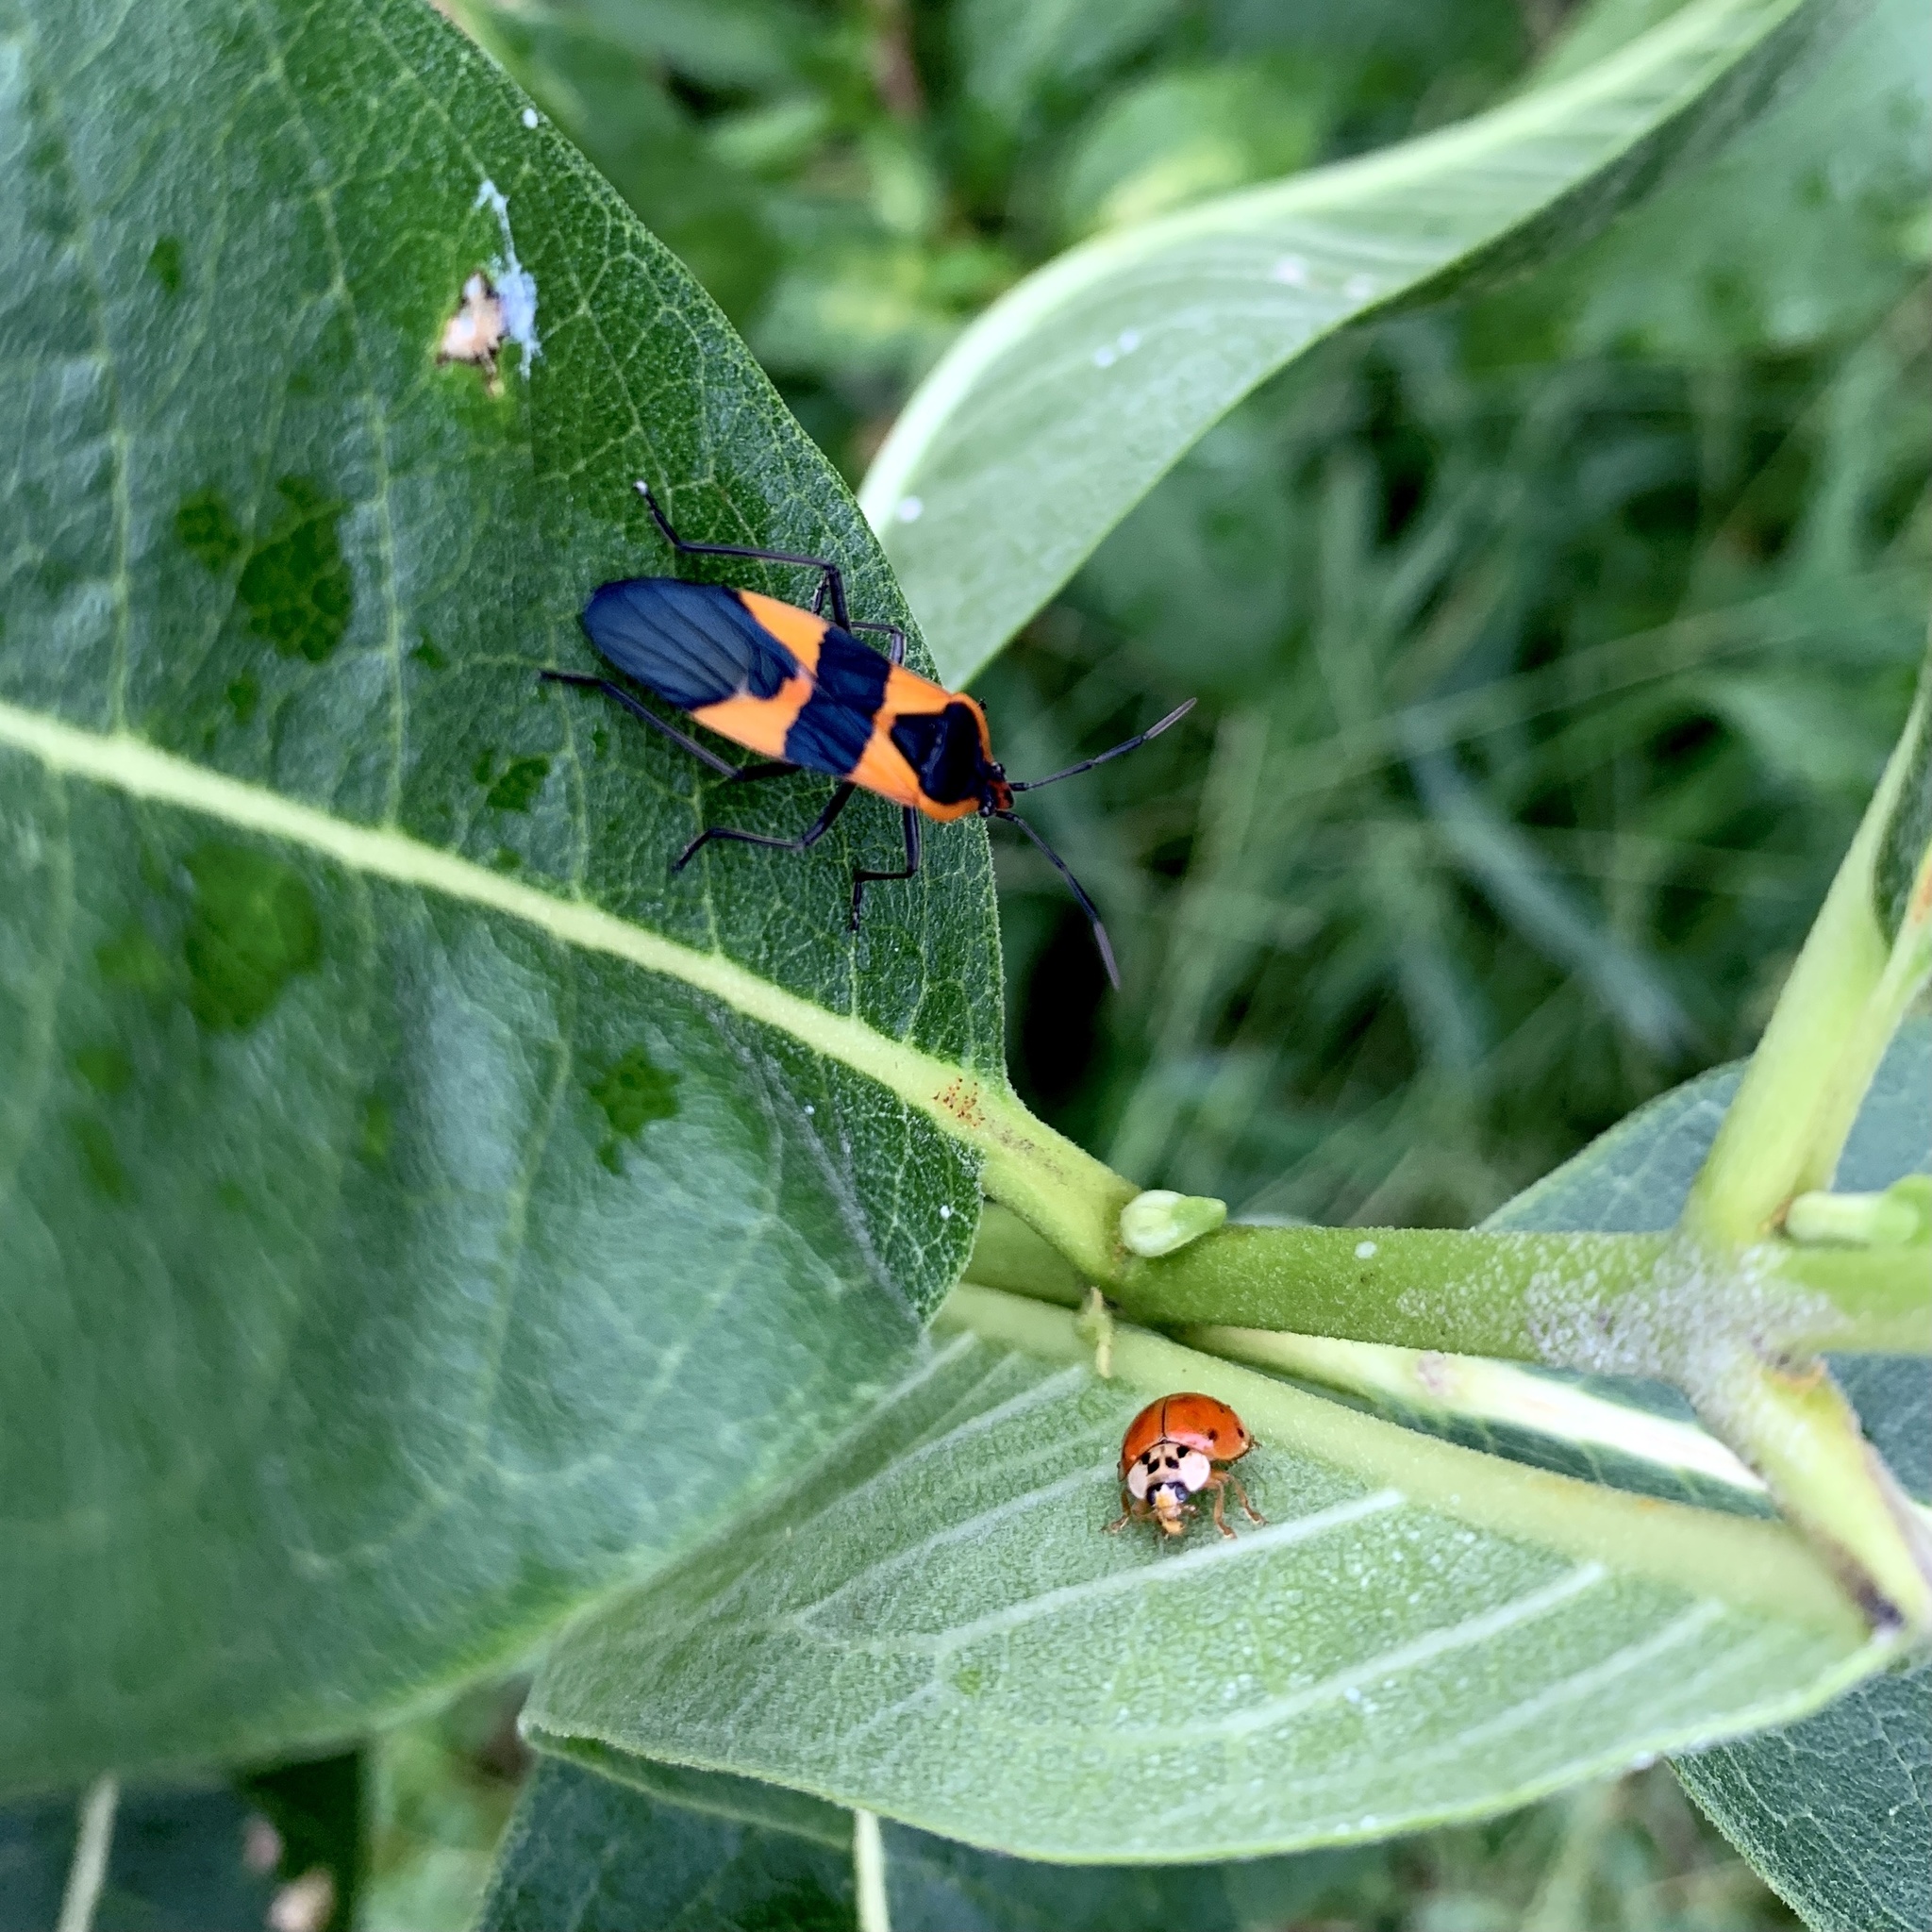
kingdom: Animalia
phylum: Arthropoda
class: Insecta
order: Hemiptera
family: Lygaeidae
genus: Oncopeltus
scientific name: Oncopeltus fasciatus
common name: Large milkweed bug
